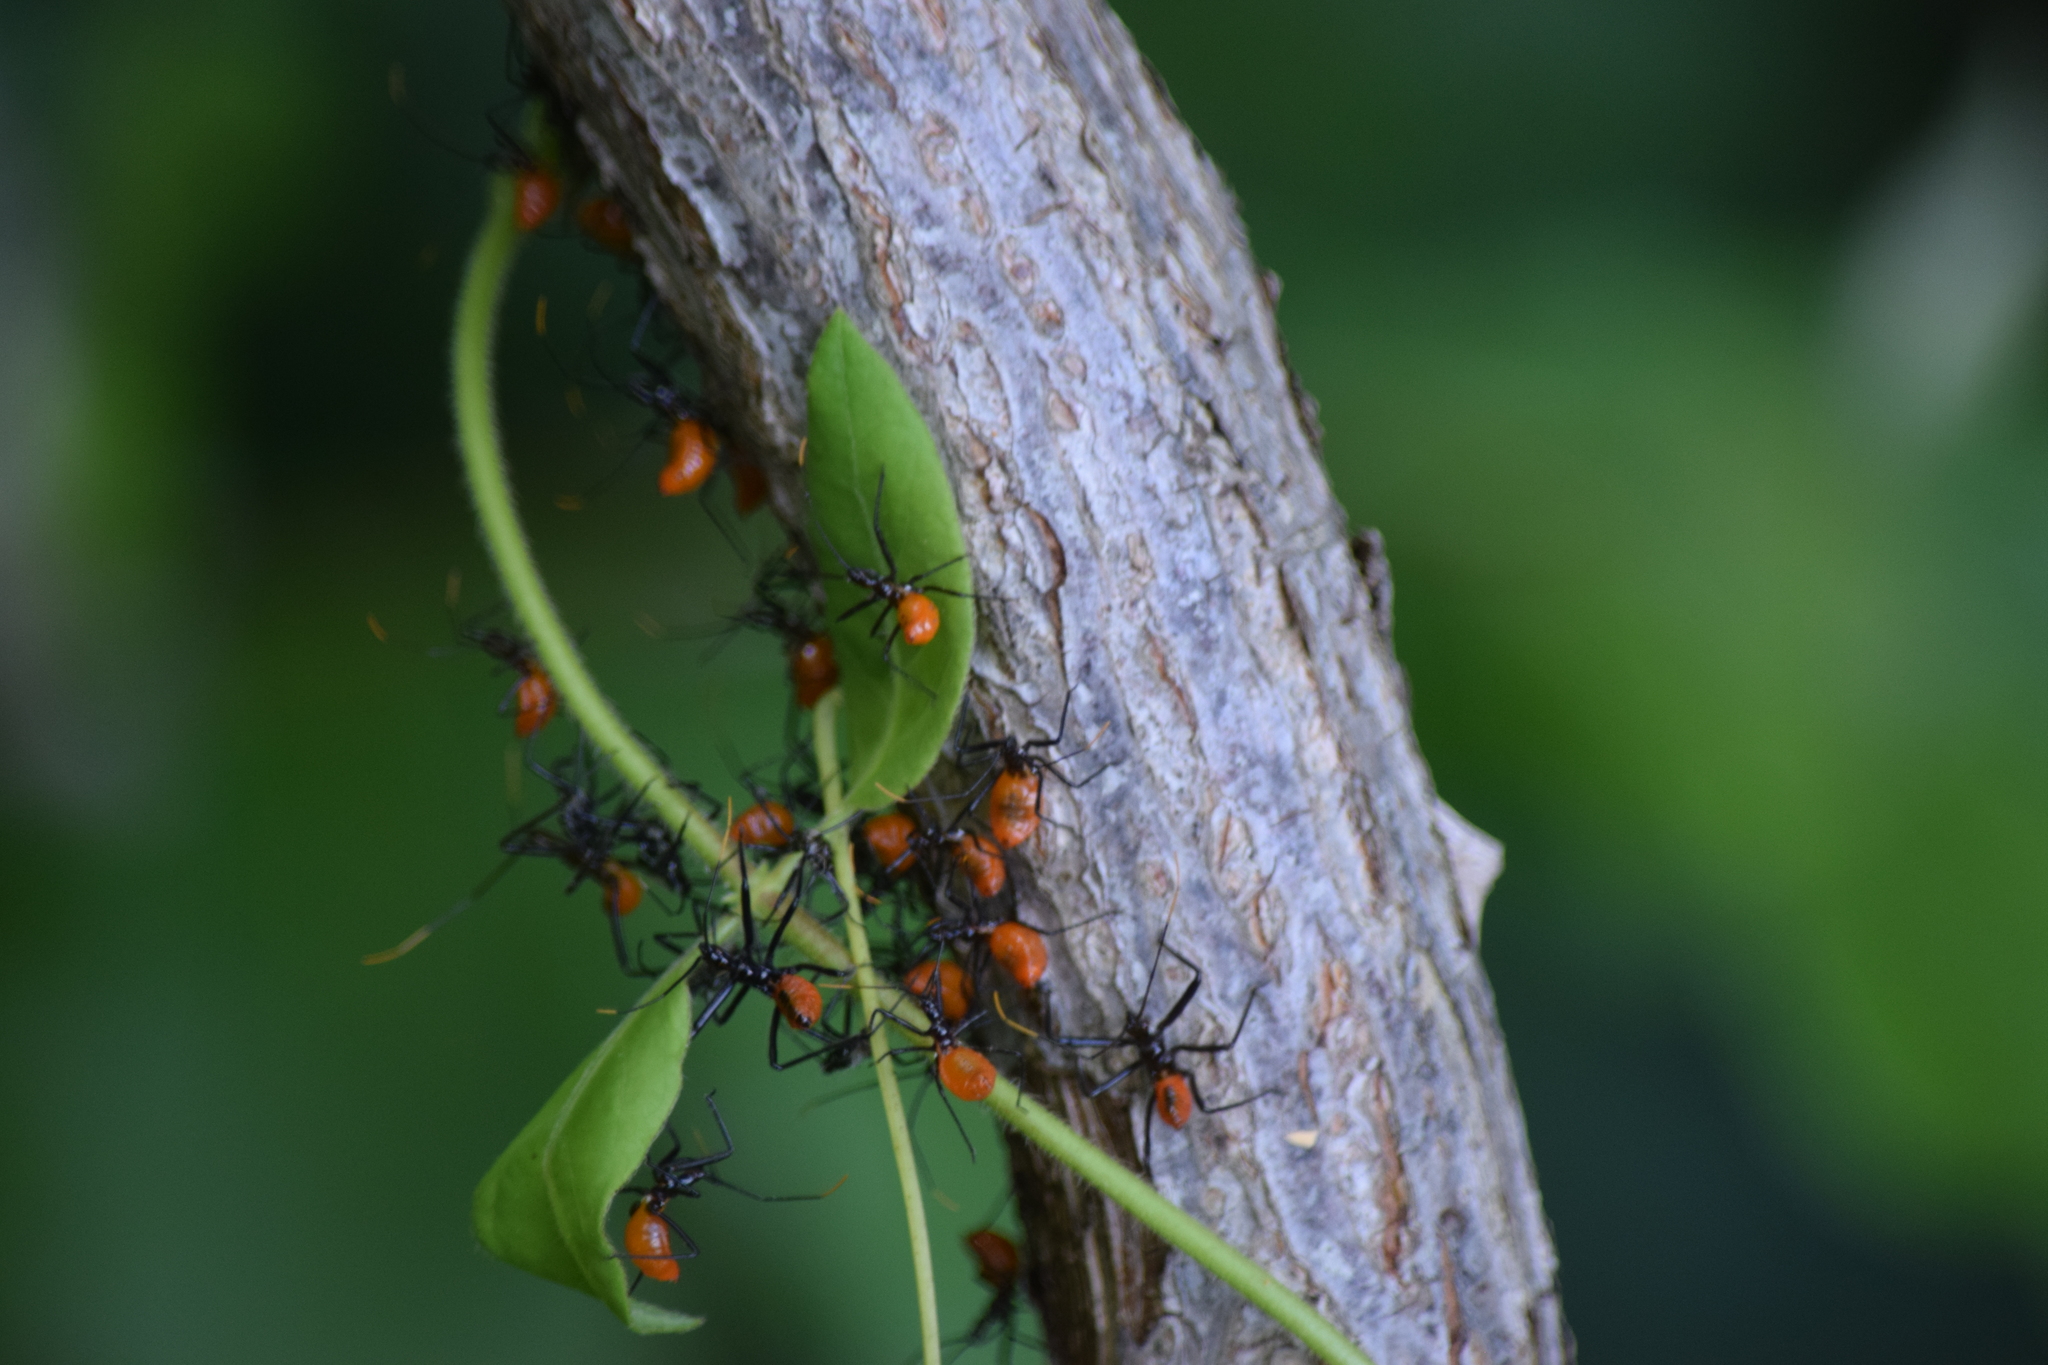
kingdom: Animalia
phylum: Arthropoda
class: Insecta
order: Hemiptera
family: Reduviidae
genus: Arilus
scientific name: Arilus cristatus
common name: North american wheel bug
